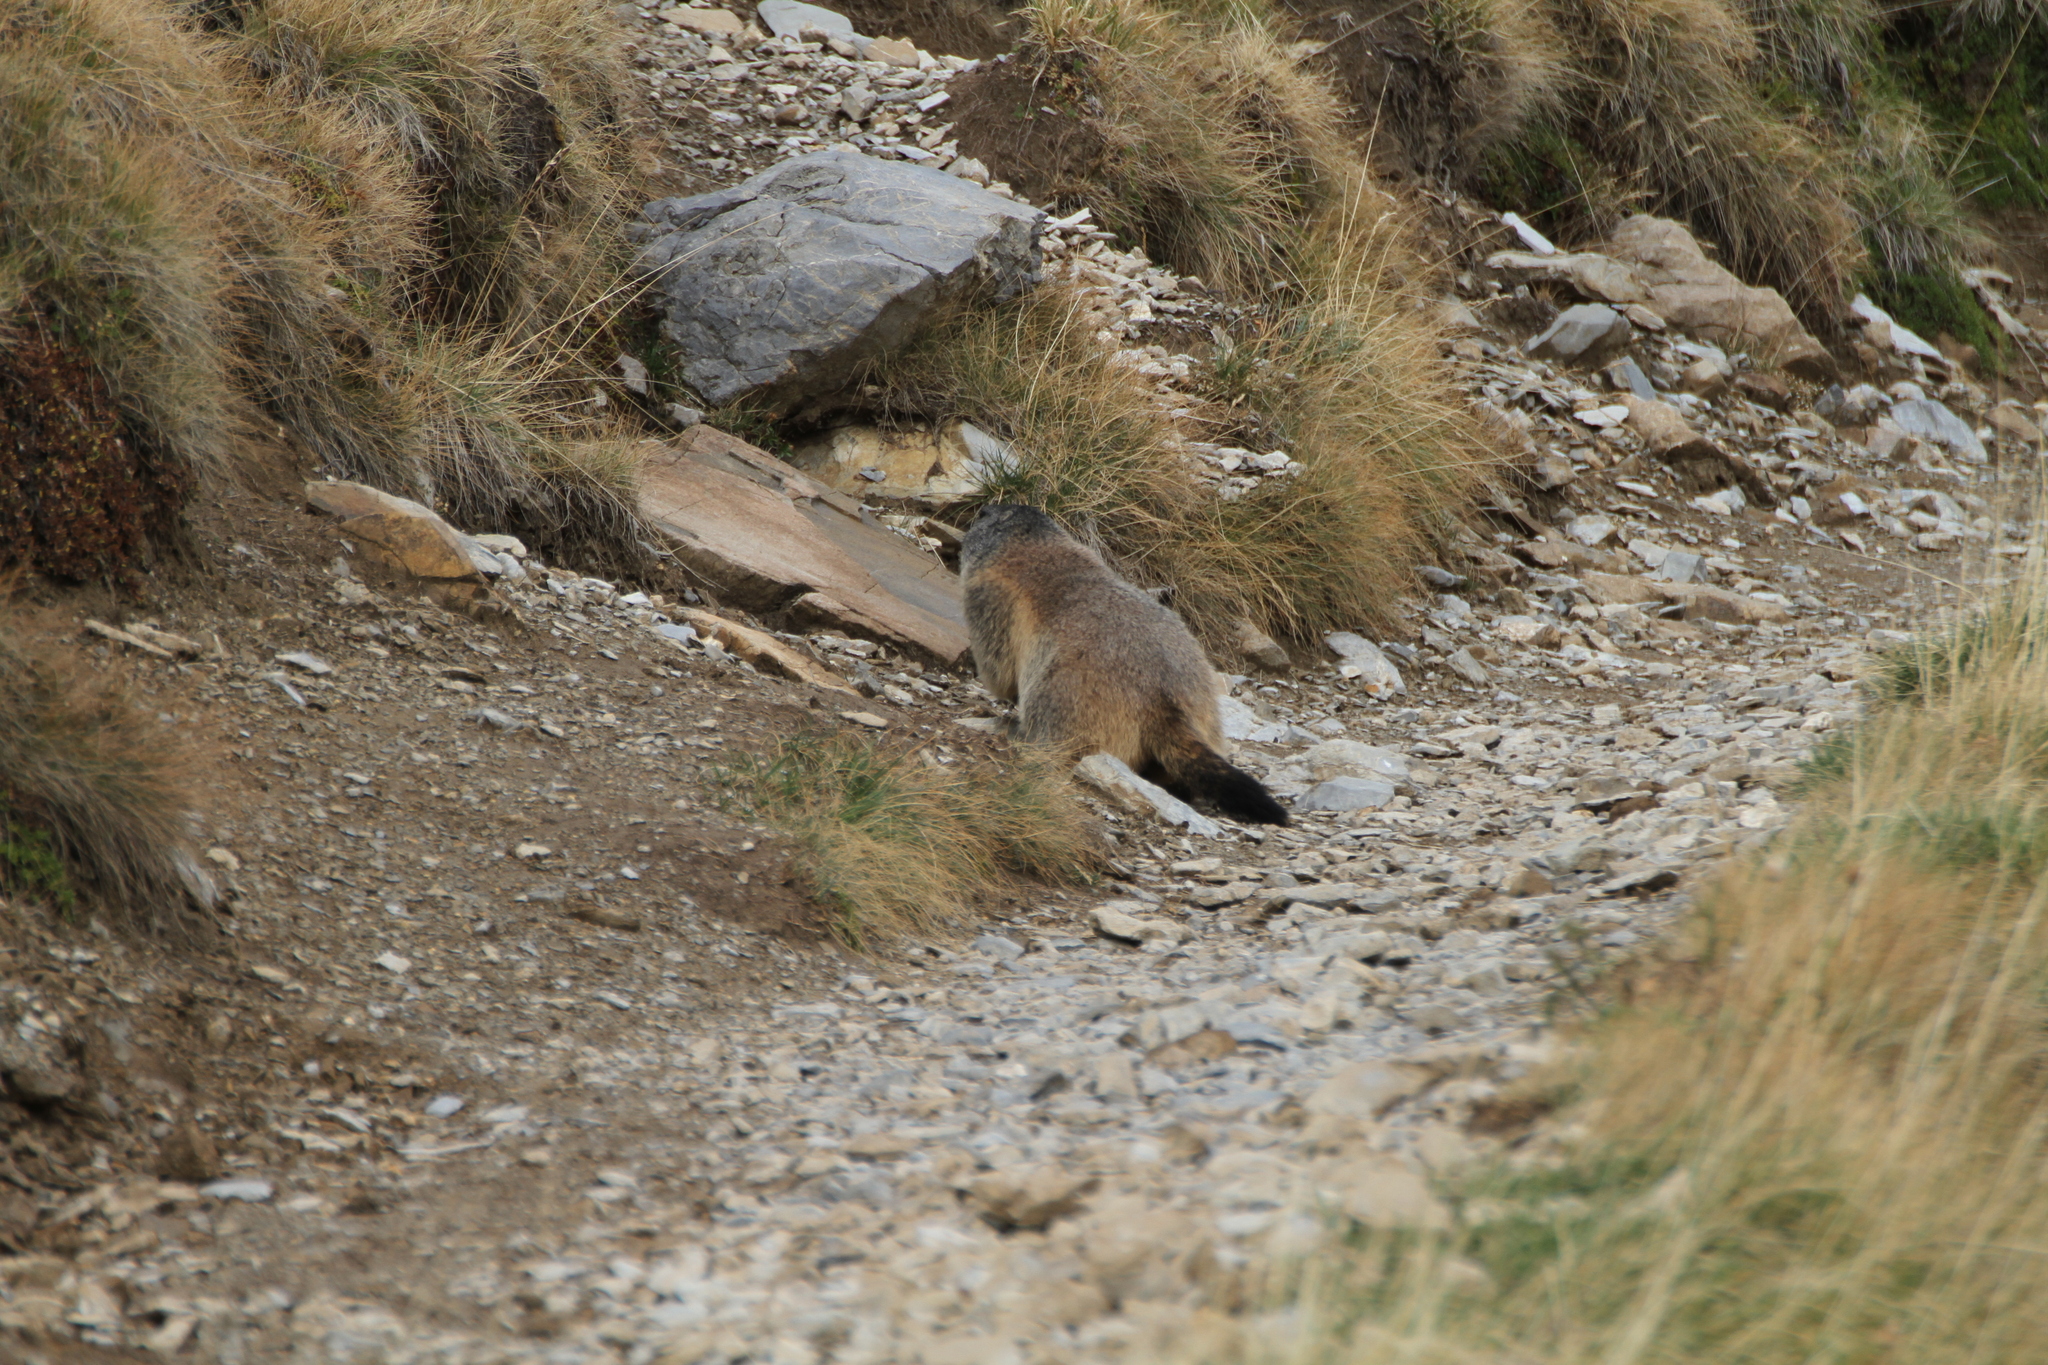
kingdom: Animalia
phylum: Chordata
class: Mammalia
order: Rodentia
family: Sciuridae
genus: Marmota
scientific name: Marmota marmota
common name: Alpine marmot
